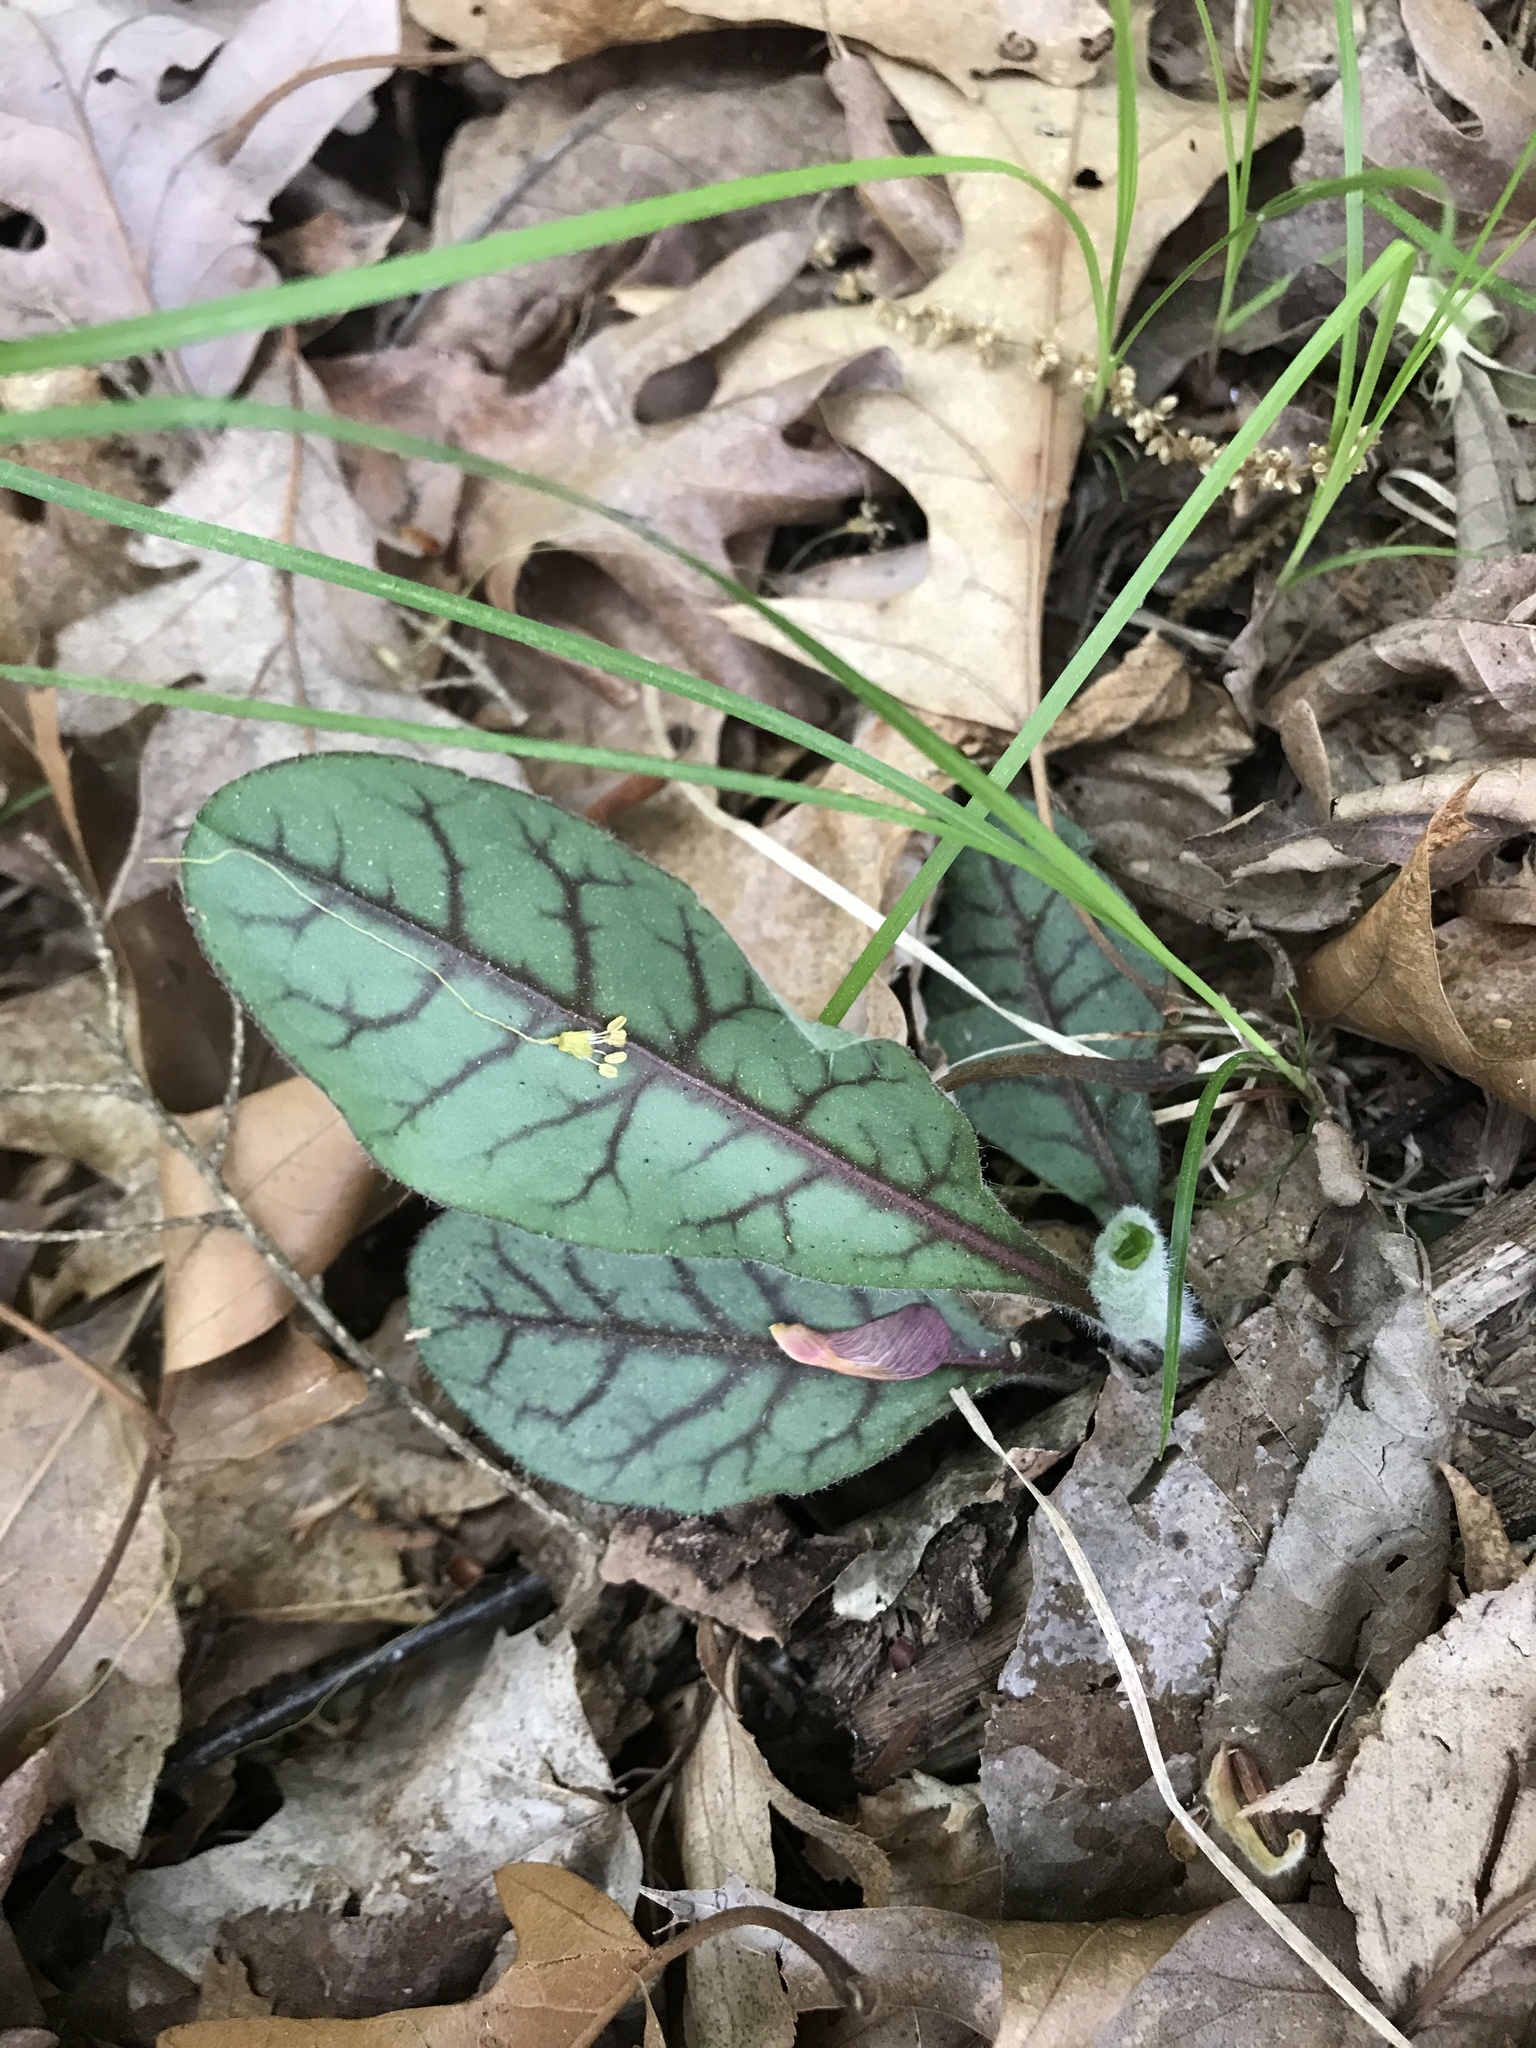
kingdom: Plantae
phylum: Tracheophyta
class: Magnoliopsida
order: Asterales
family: Asteraceae
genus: Hieracium
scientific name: Hieracium venosum
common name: Rattlesnake hawkweed
